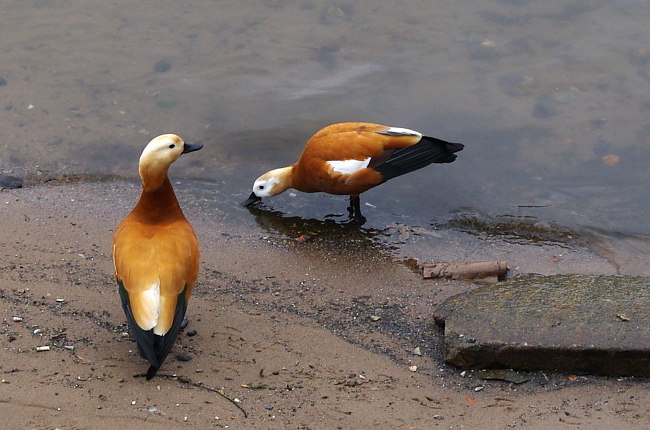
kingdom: Animalia
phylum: Chordata
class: Aves
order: Anseriformes
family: Anatidae
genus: Tadorna
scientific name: Tadorna ferruginea
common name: Ruddy shelduck
